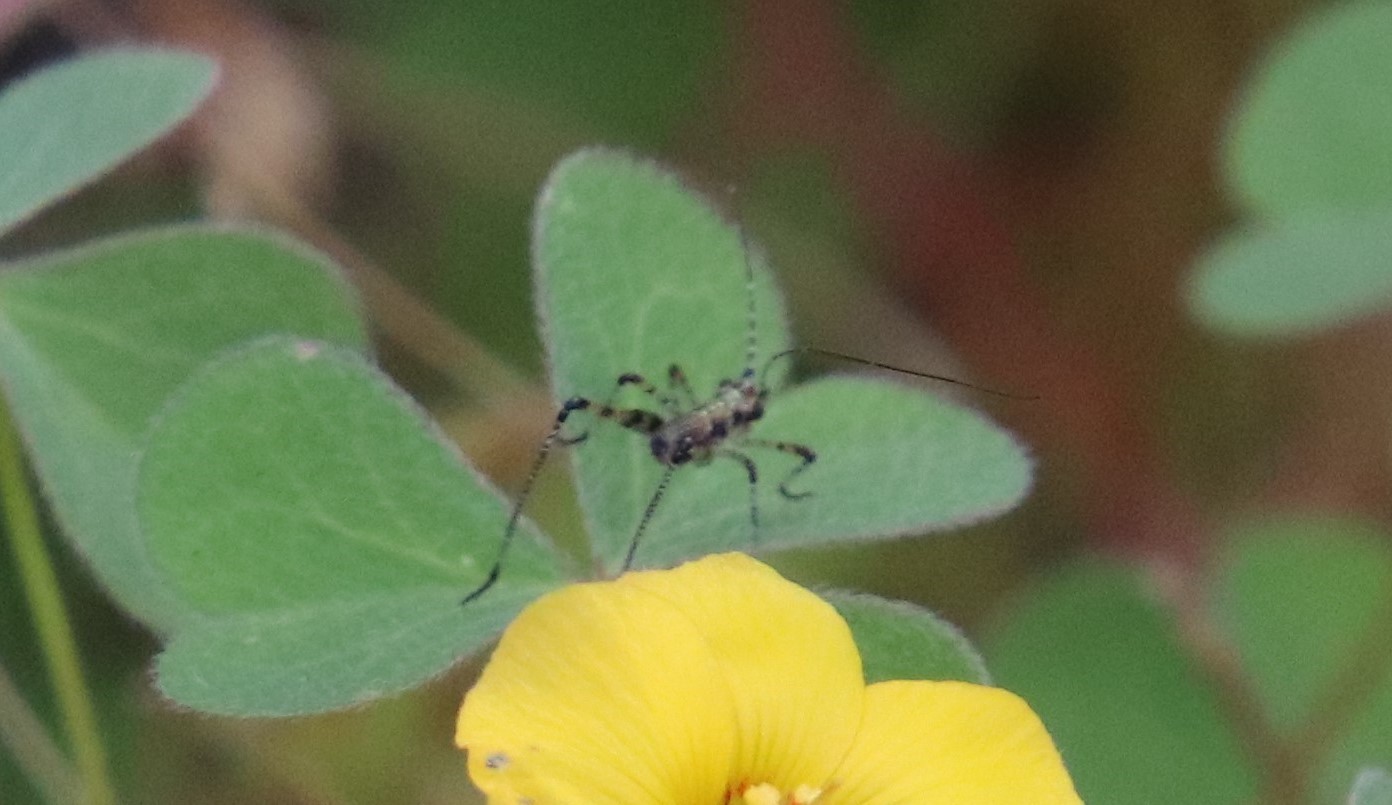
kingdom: Animalia
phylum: Arthropoda
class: Insecta
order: Orthoptera
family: Tettigoniidae
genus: Phaneroptera
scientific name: Phaneroptera nana
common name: Southern sickle bush-cricket
